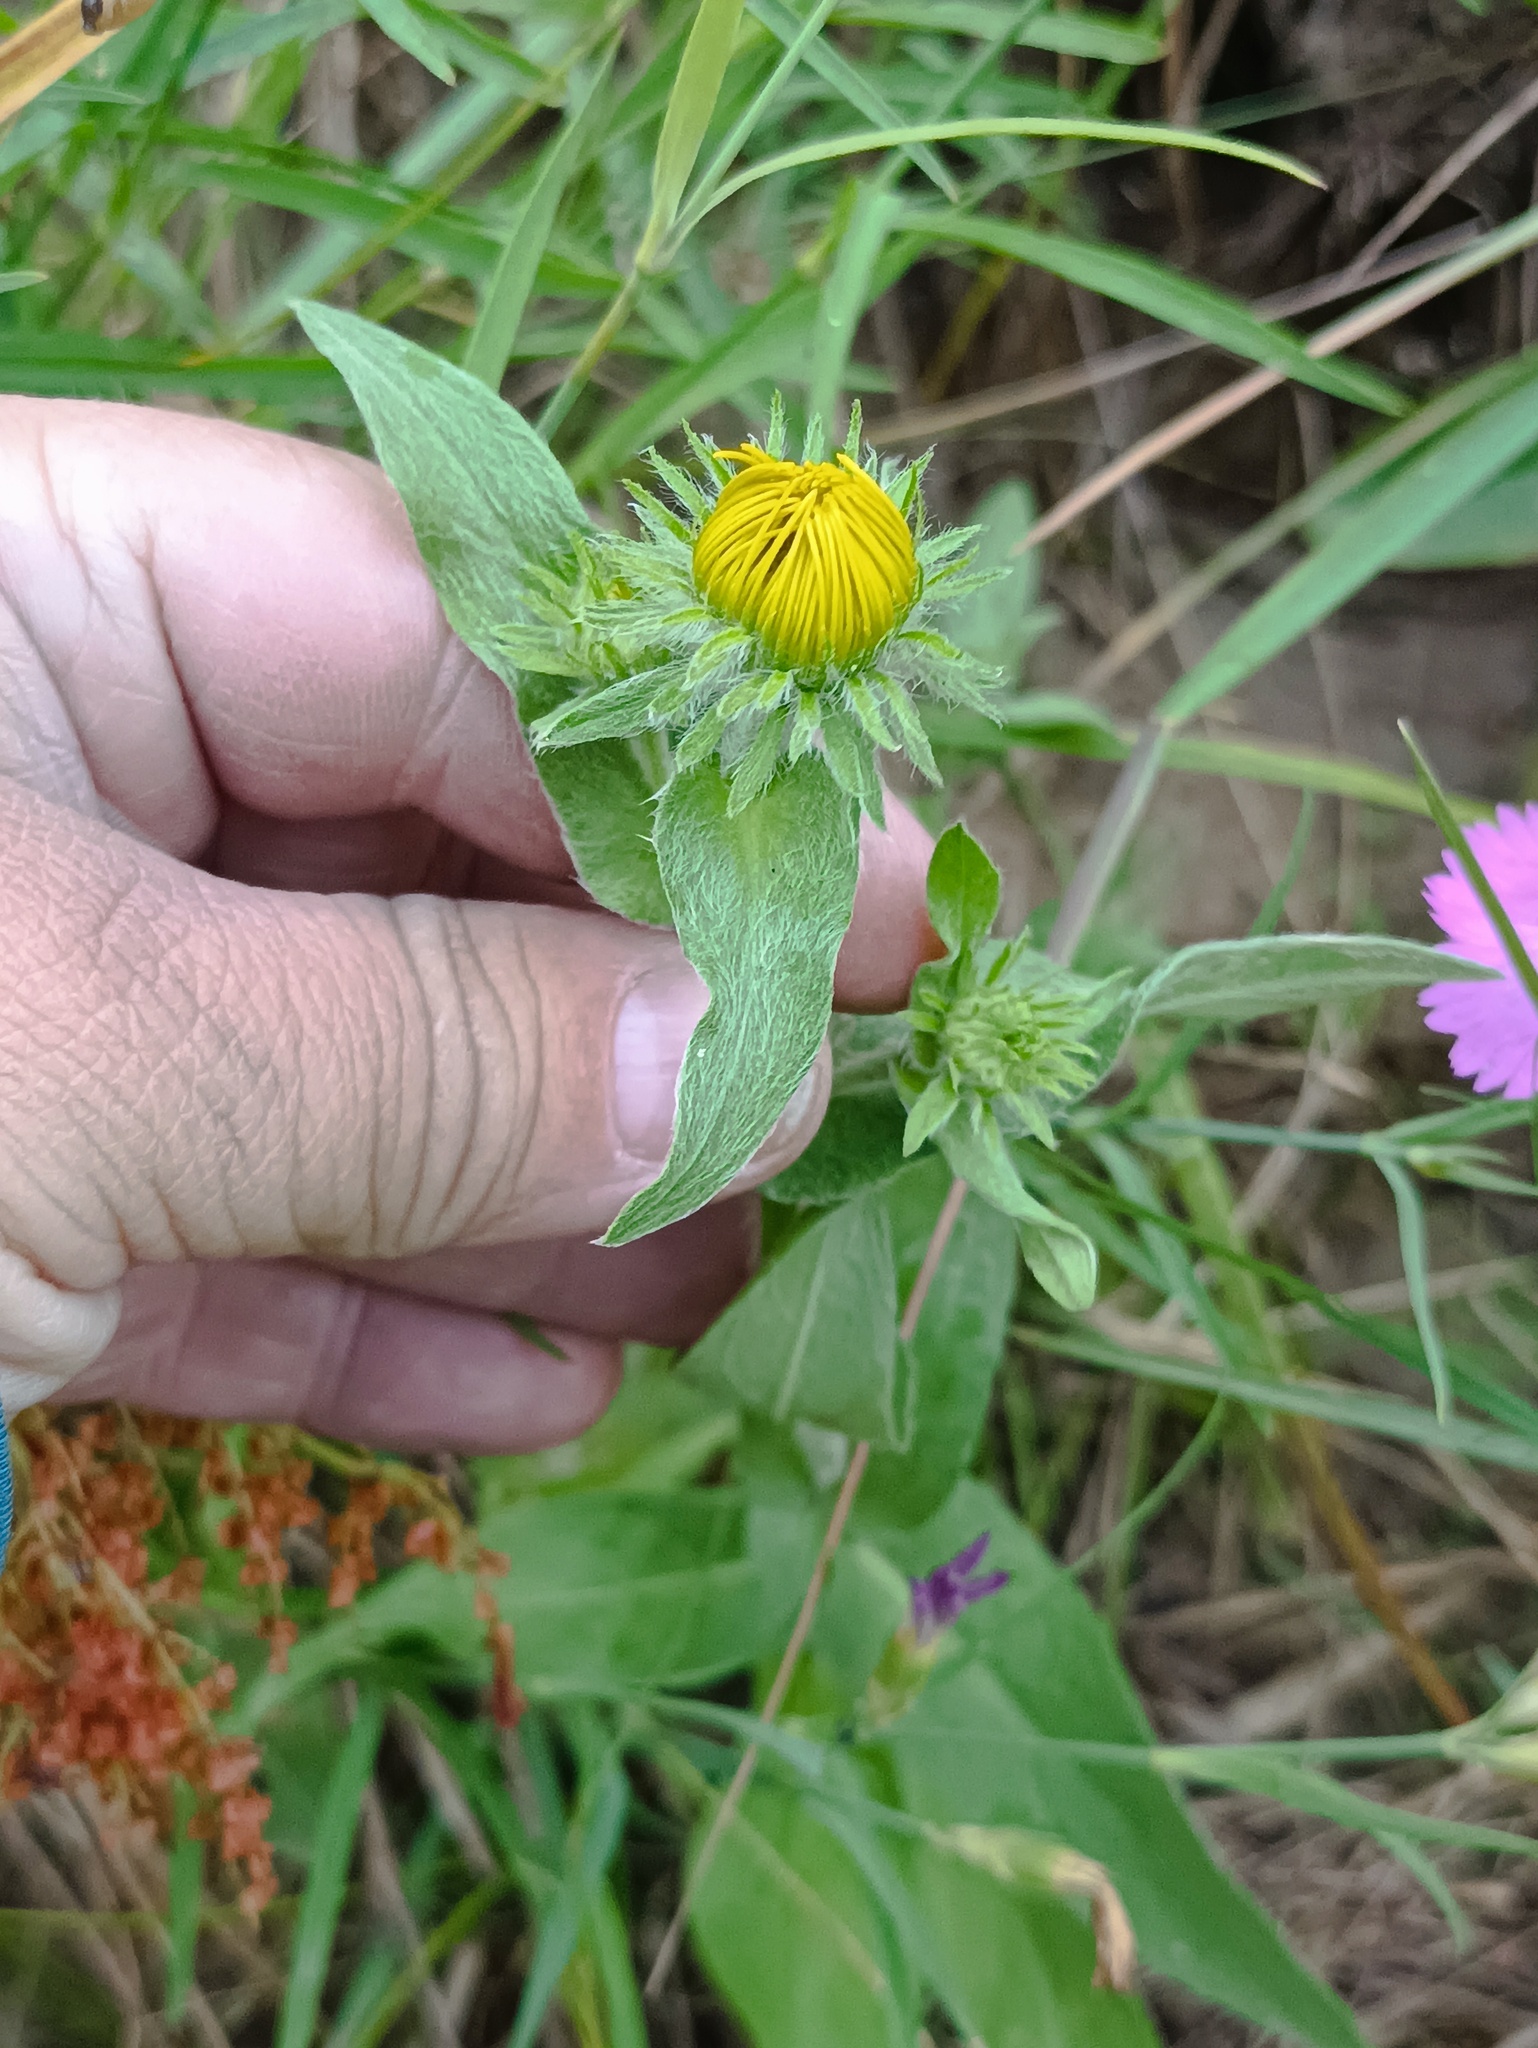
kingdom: Plantae
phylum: Tracheophyta
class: Magnoliopsida
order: Asterales
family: Asteraceae
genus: Pentanema
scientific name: Pentanema britannicum
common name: British elecampane
